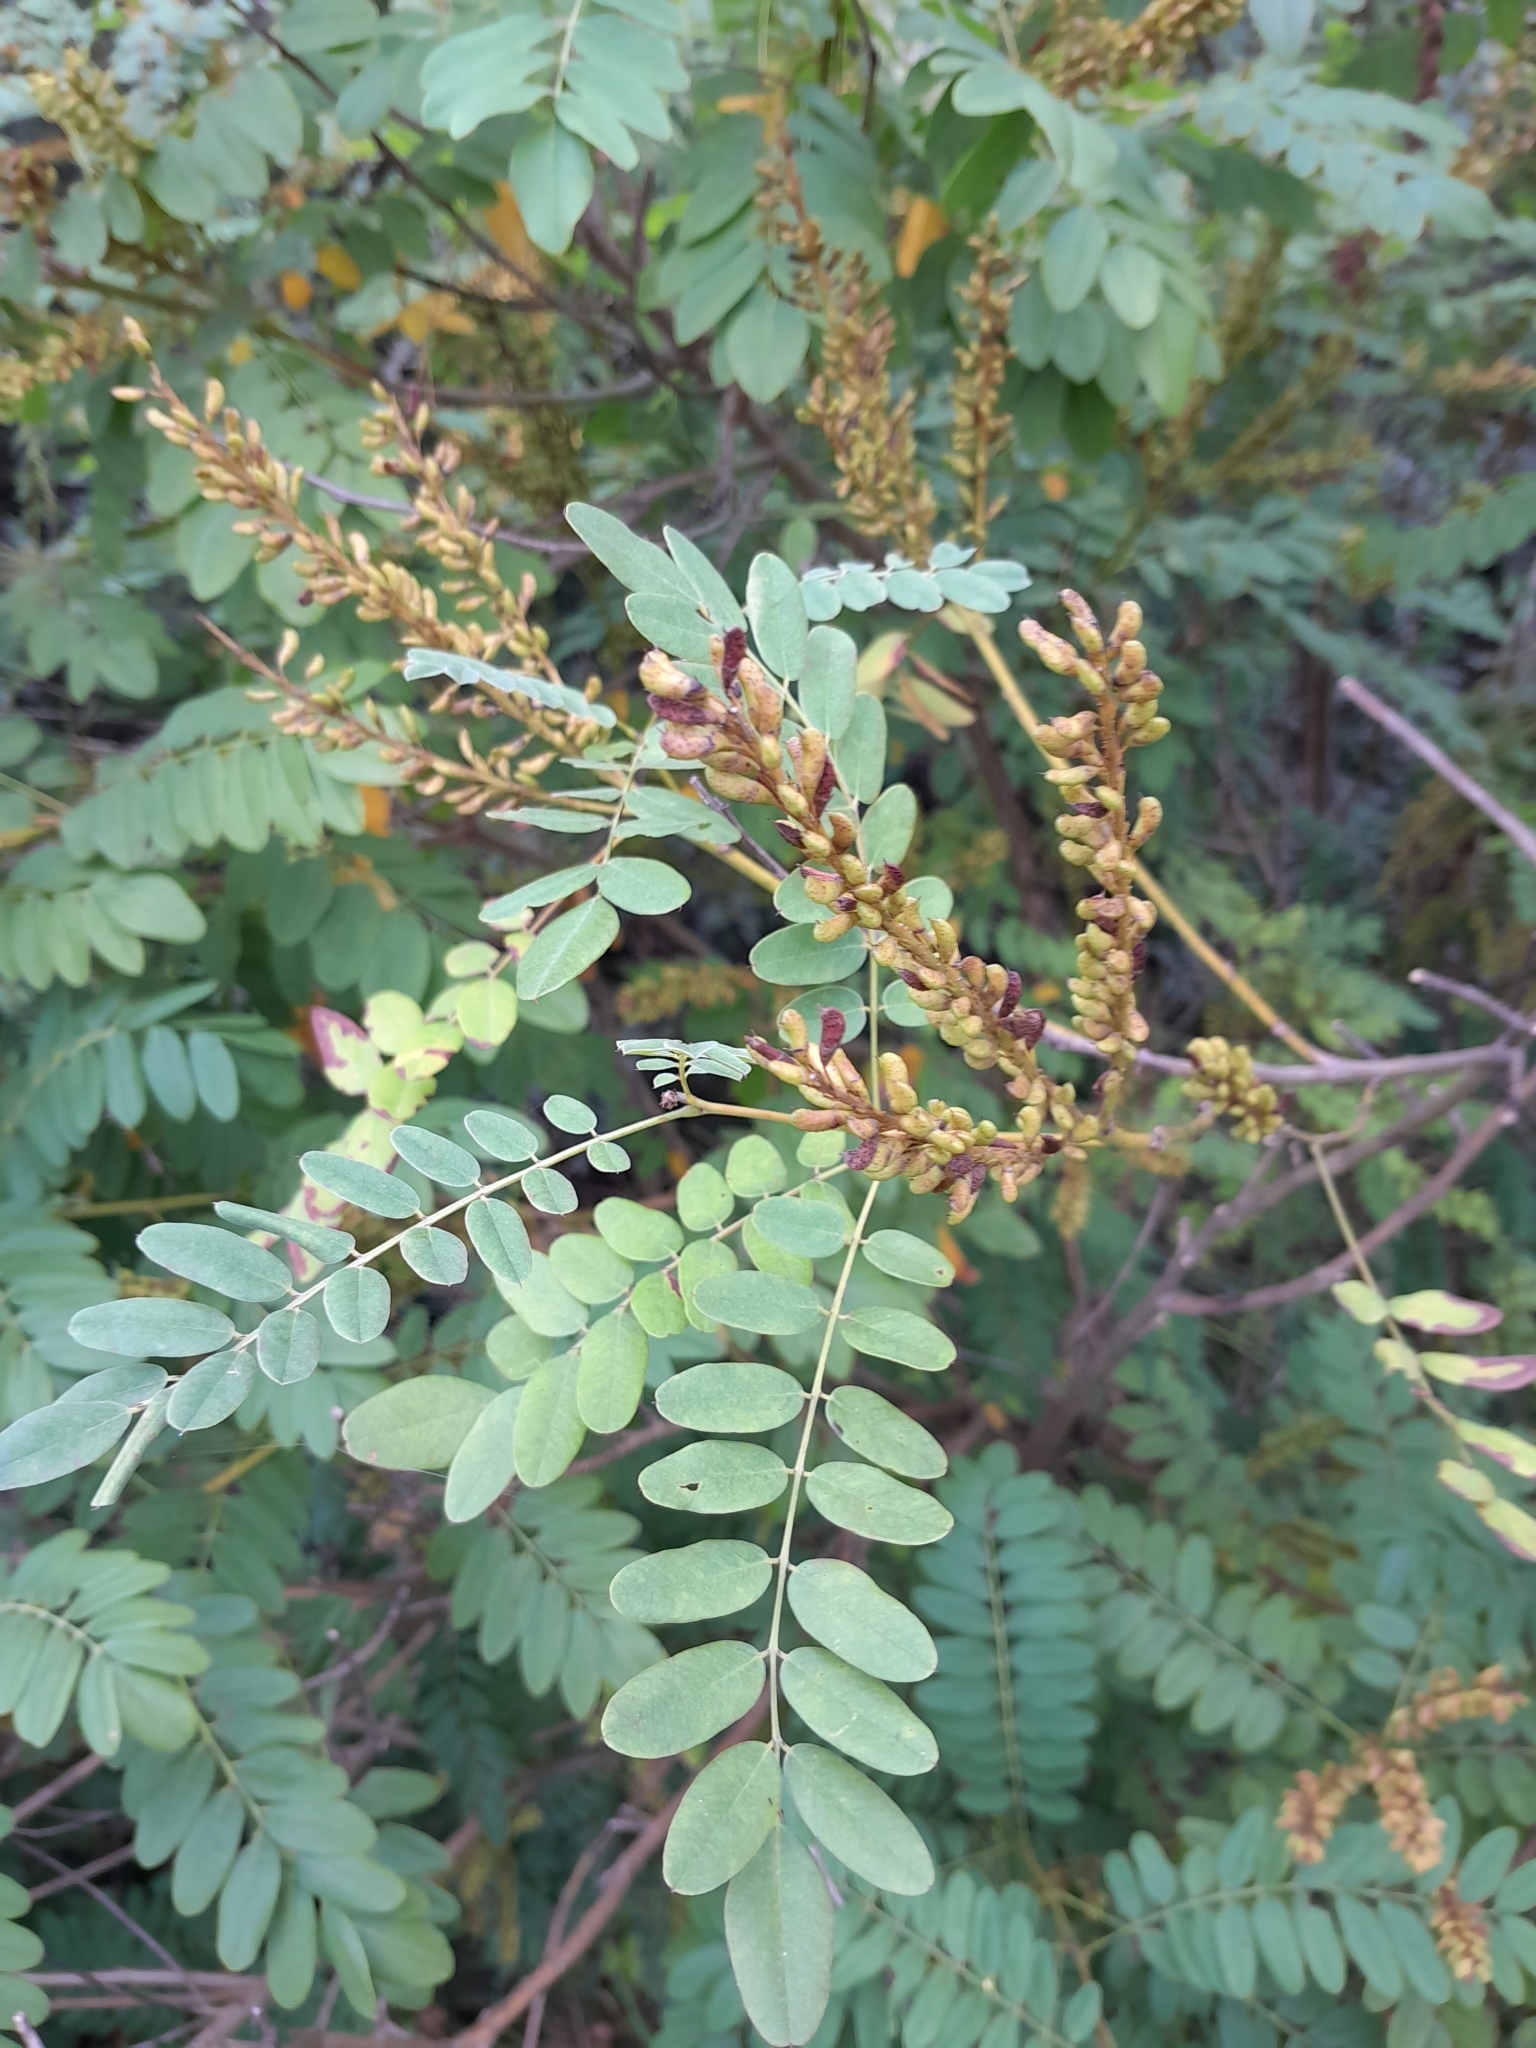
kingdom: Plantae
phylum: Tracheophyta
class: Magnoliopsida
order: Fabales
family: Fabaceae
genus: Amorpha
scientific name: Amorpha fruticosa
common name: False indigo
